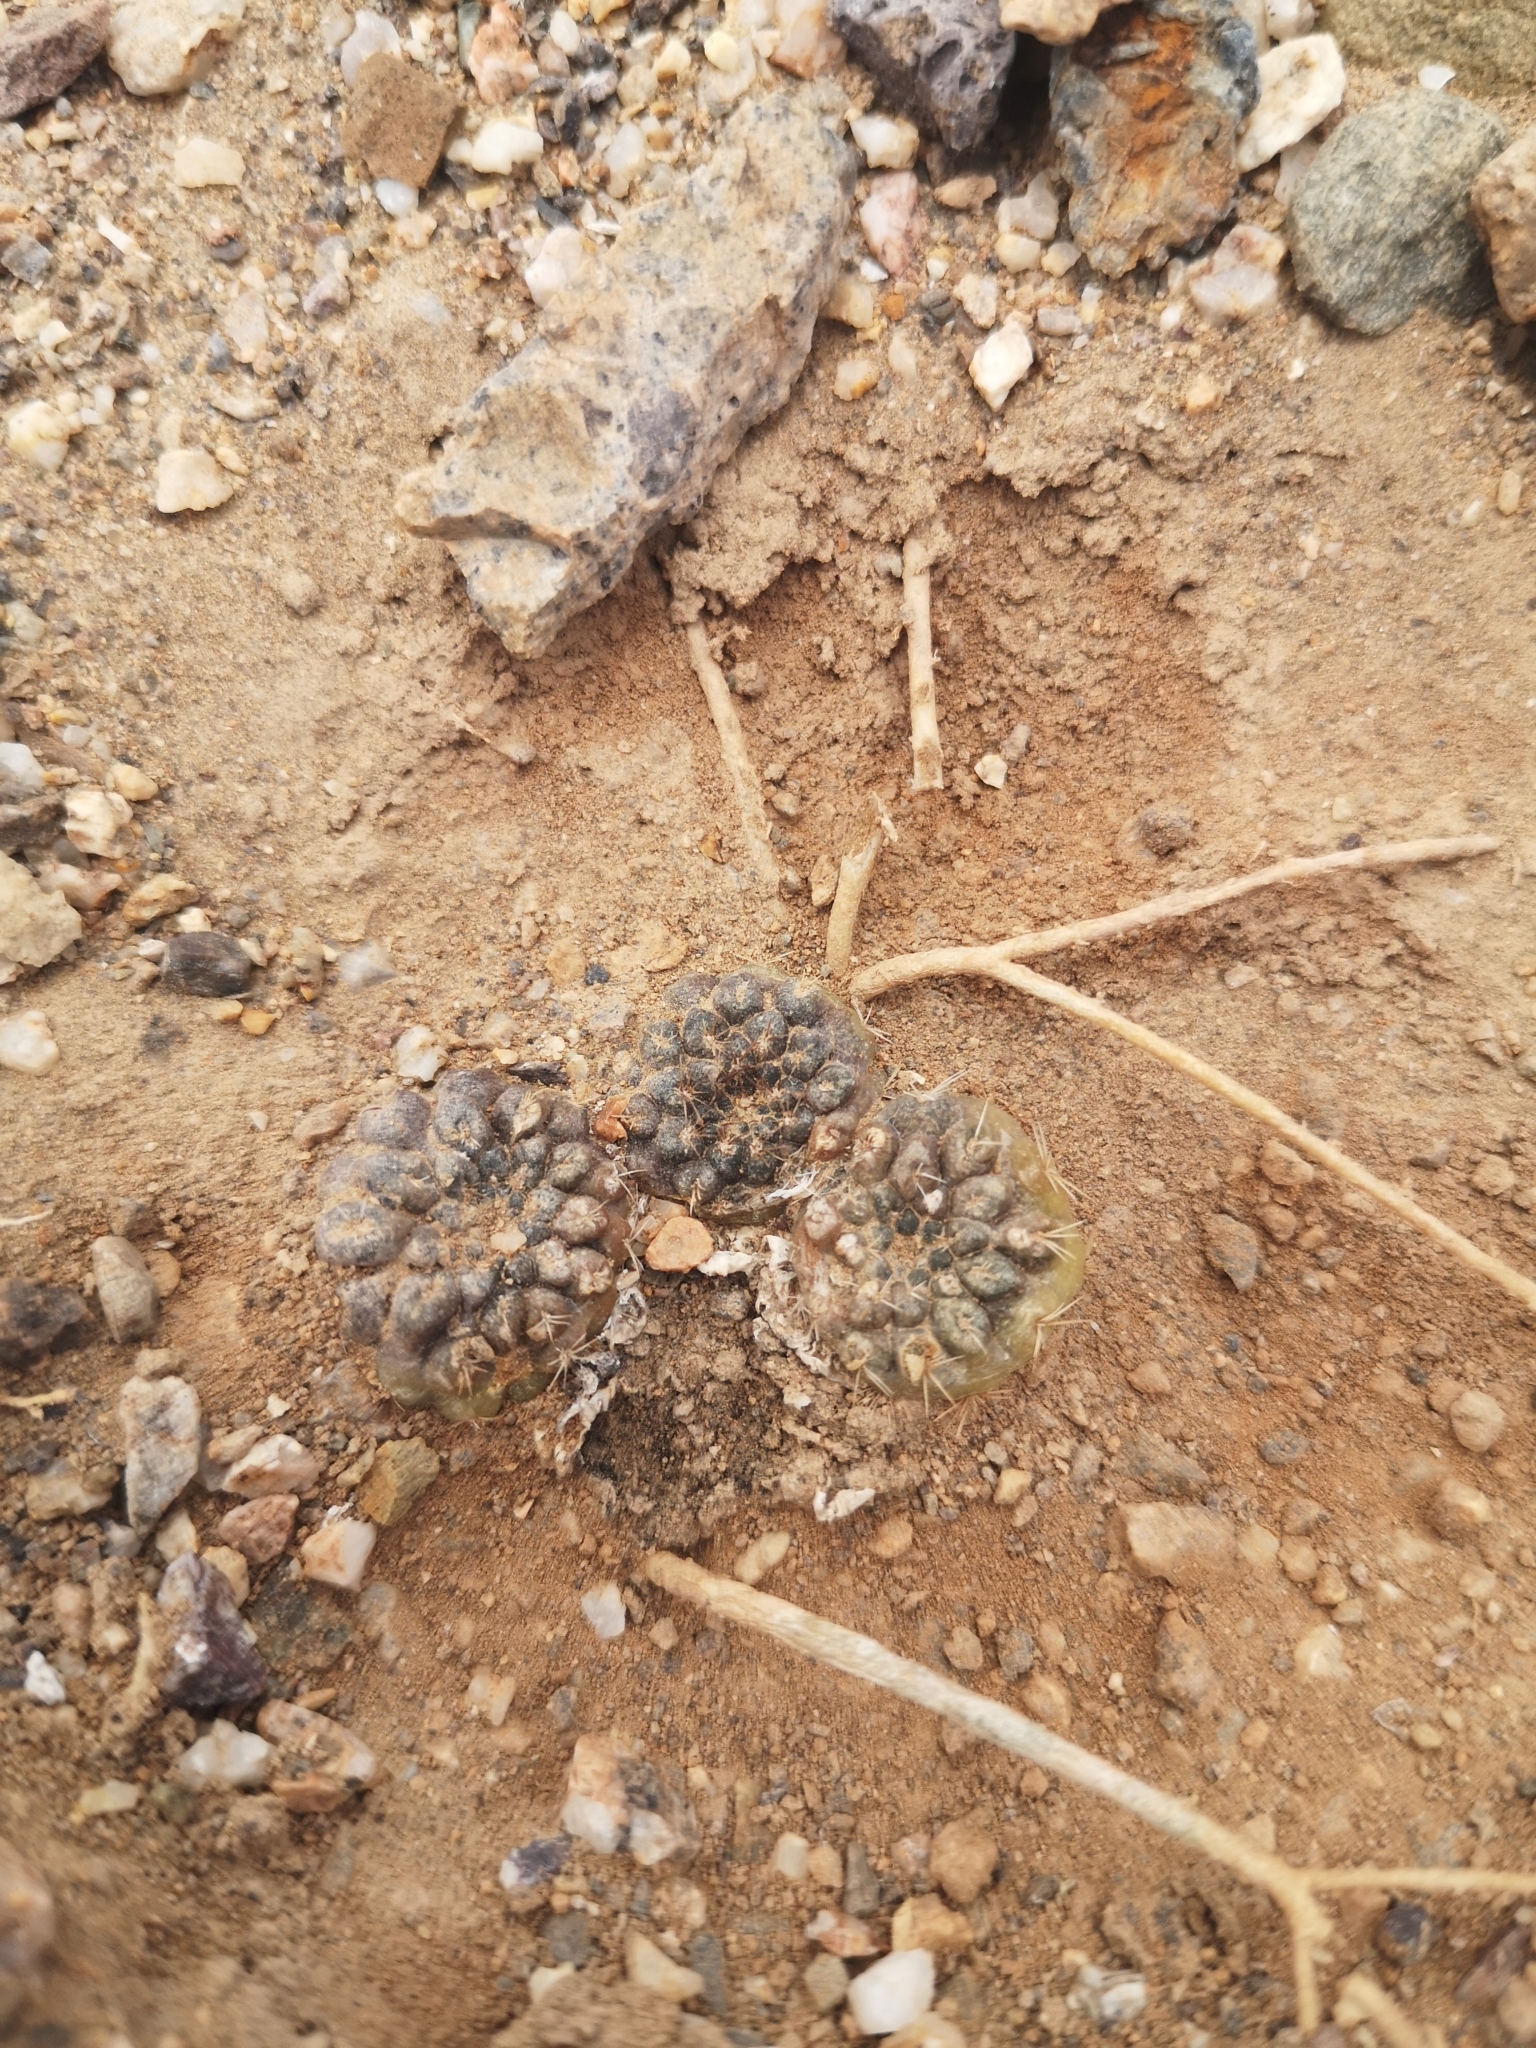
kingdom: Plantae
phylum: Tracheophyta
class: Magnoliopsida
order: Caryophyllales
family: Cactaceae
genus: Eriosyce
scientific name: Eriosyce esmeraldana
